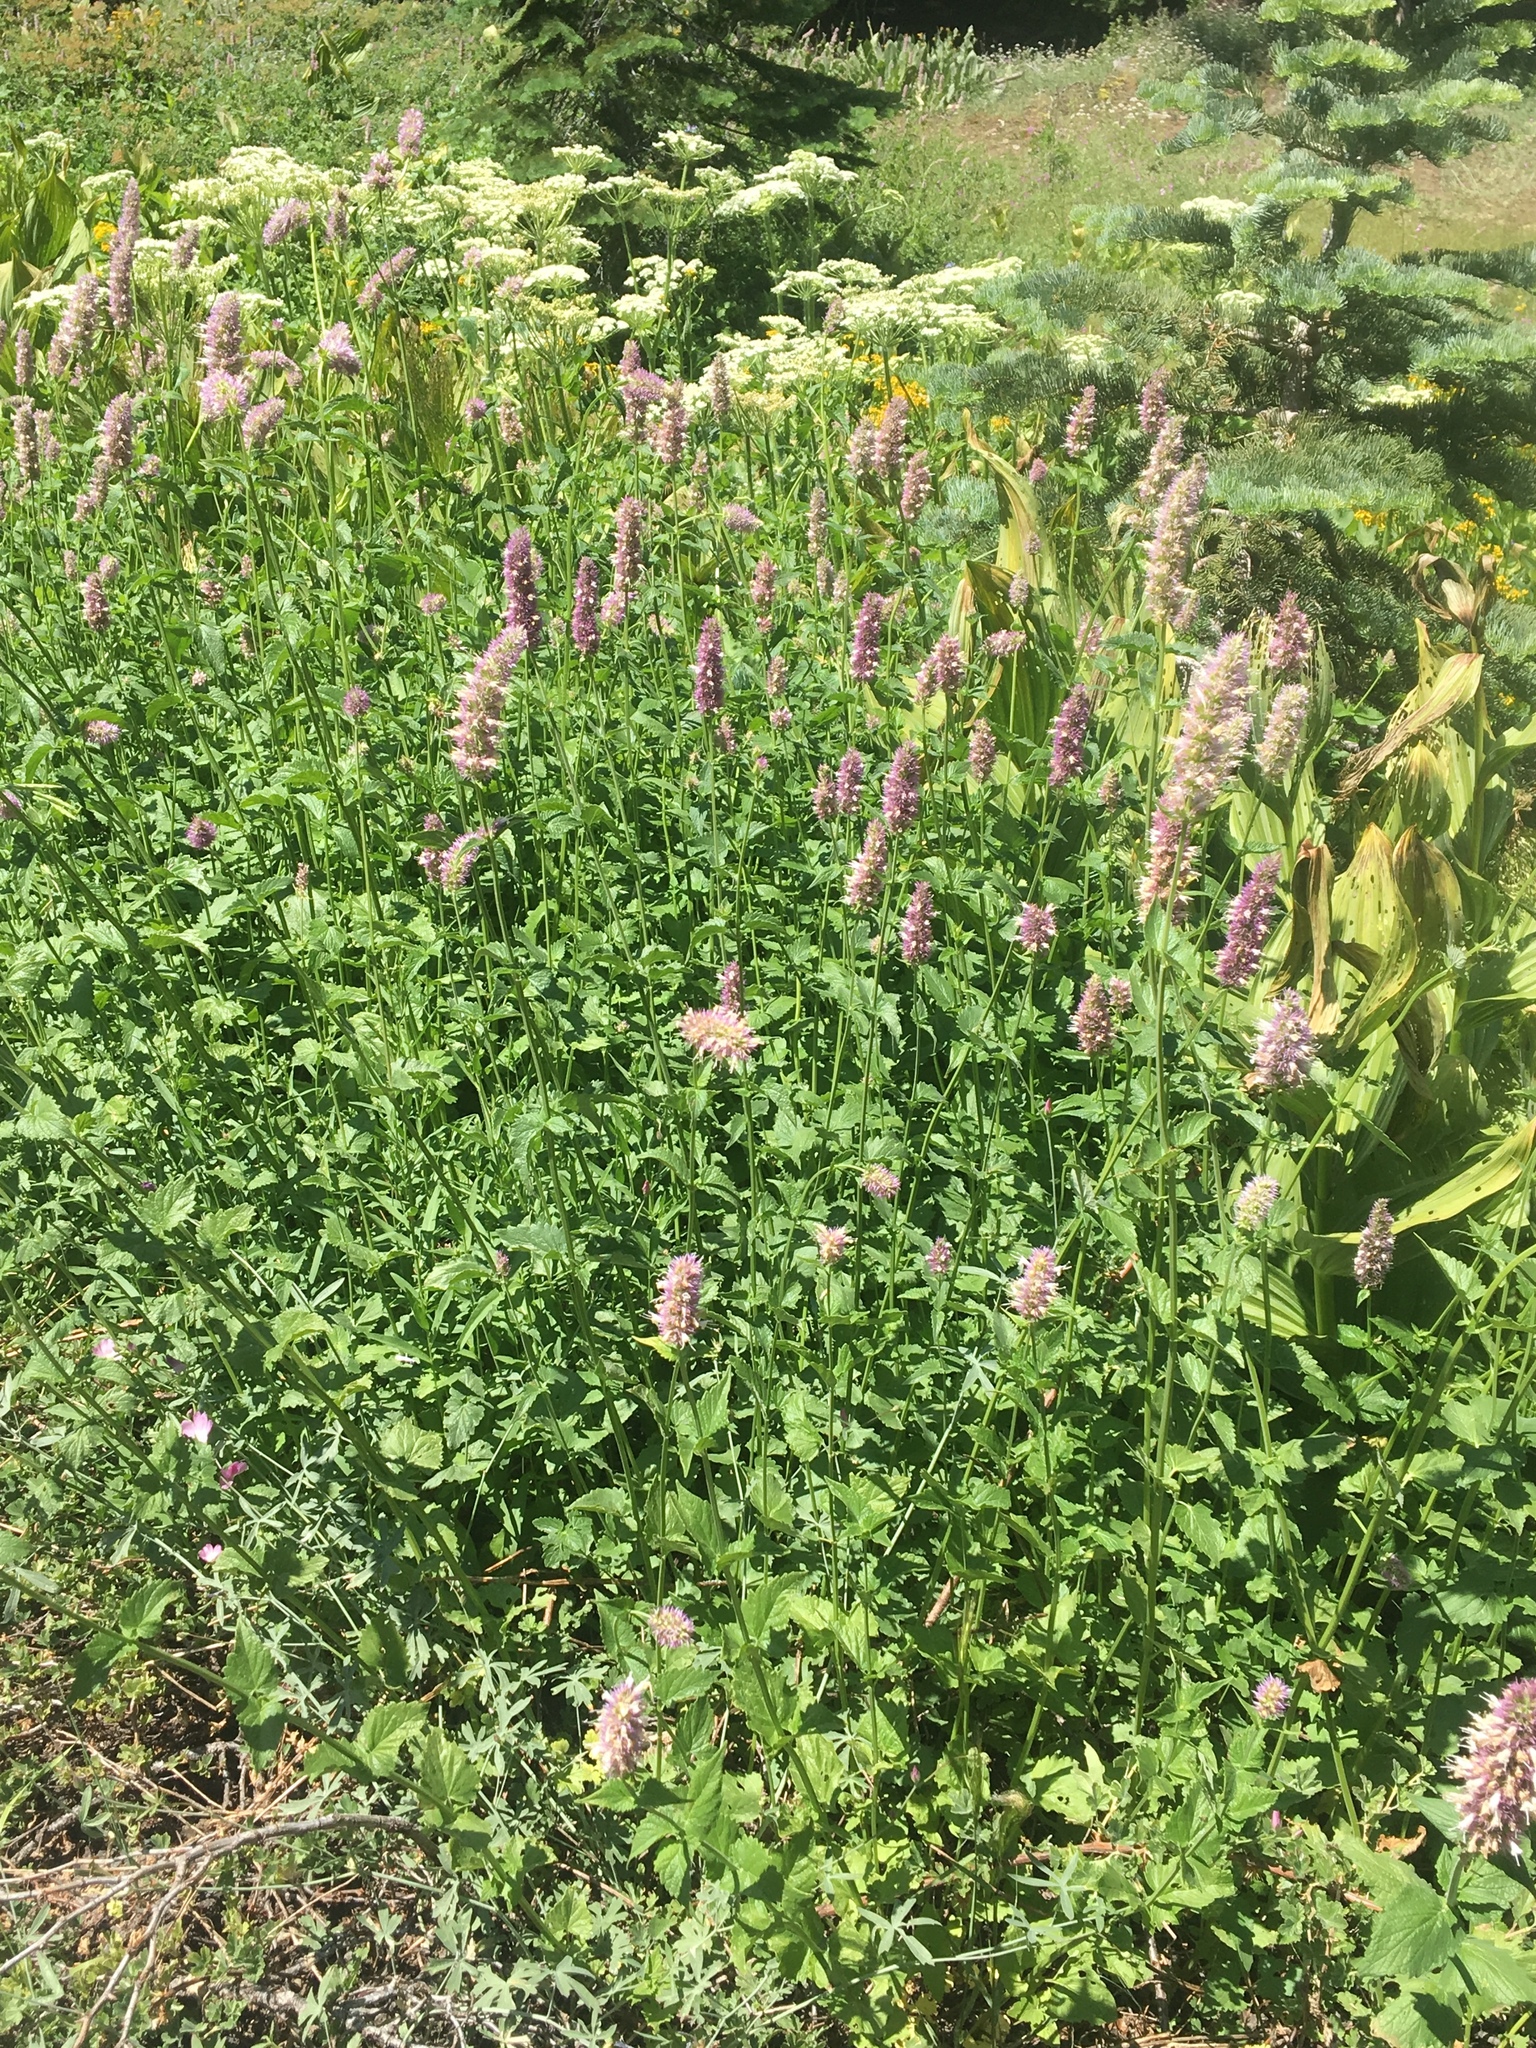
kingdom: Plantae
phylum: Tracheophyta
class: Magnoliopsida
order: Lamiales
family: Lamiaceae
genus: Agastache
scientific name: Agastache urticifolia
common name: Horsemint giant hyssop
